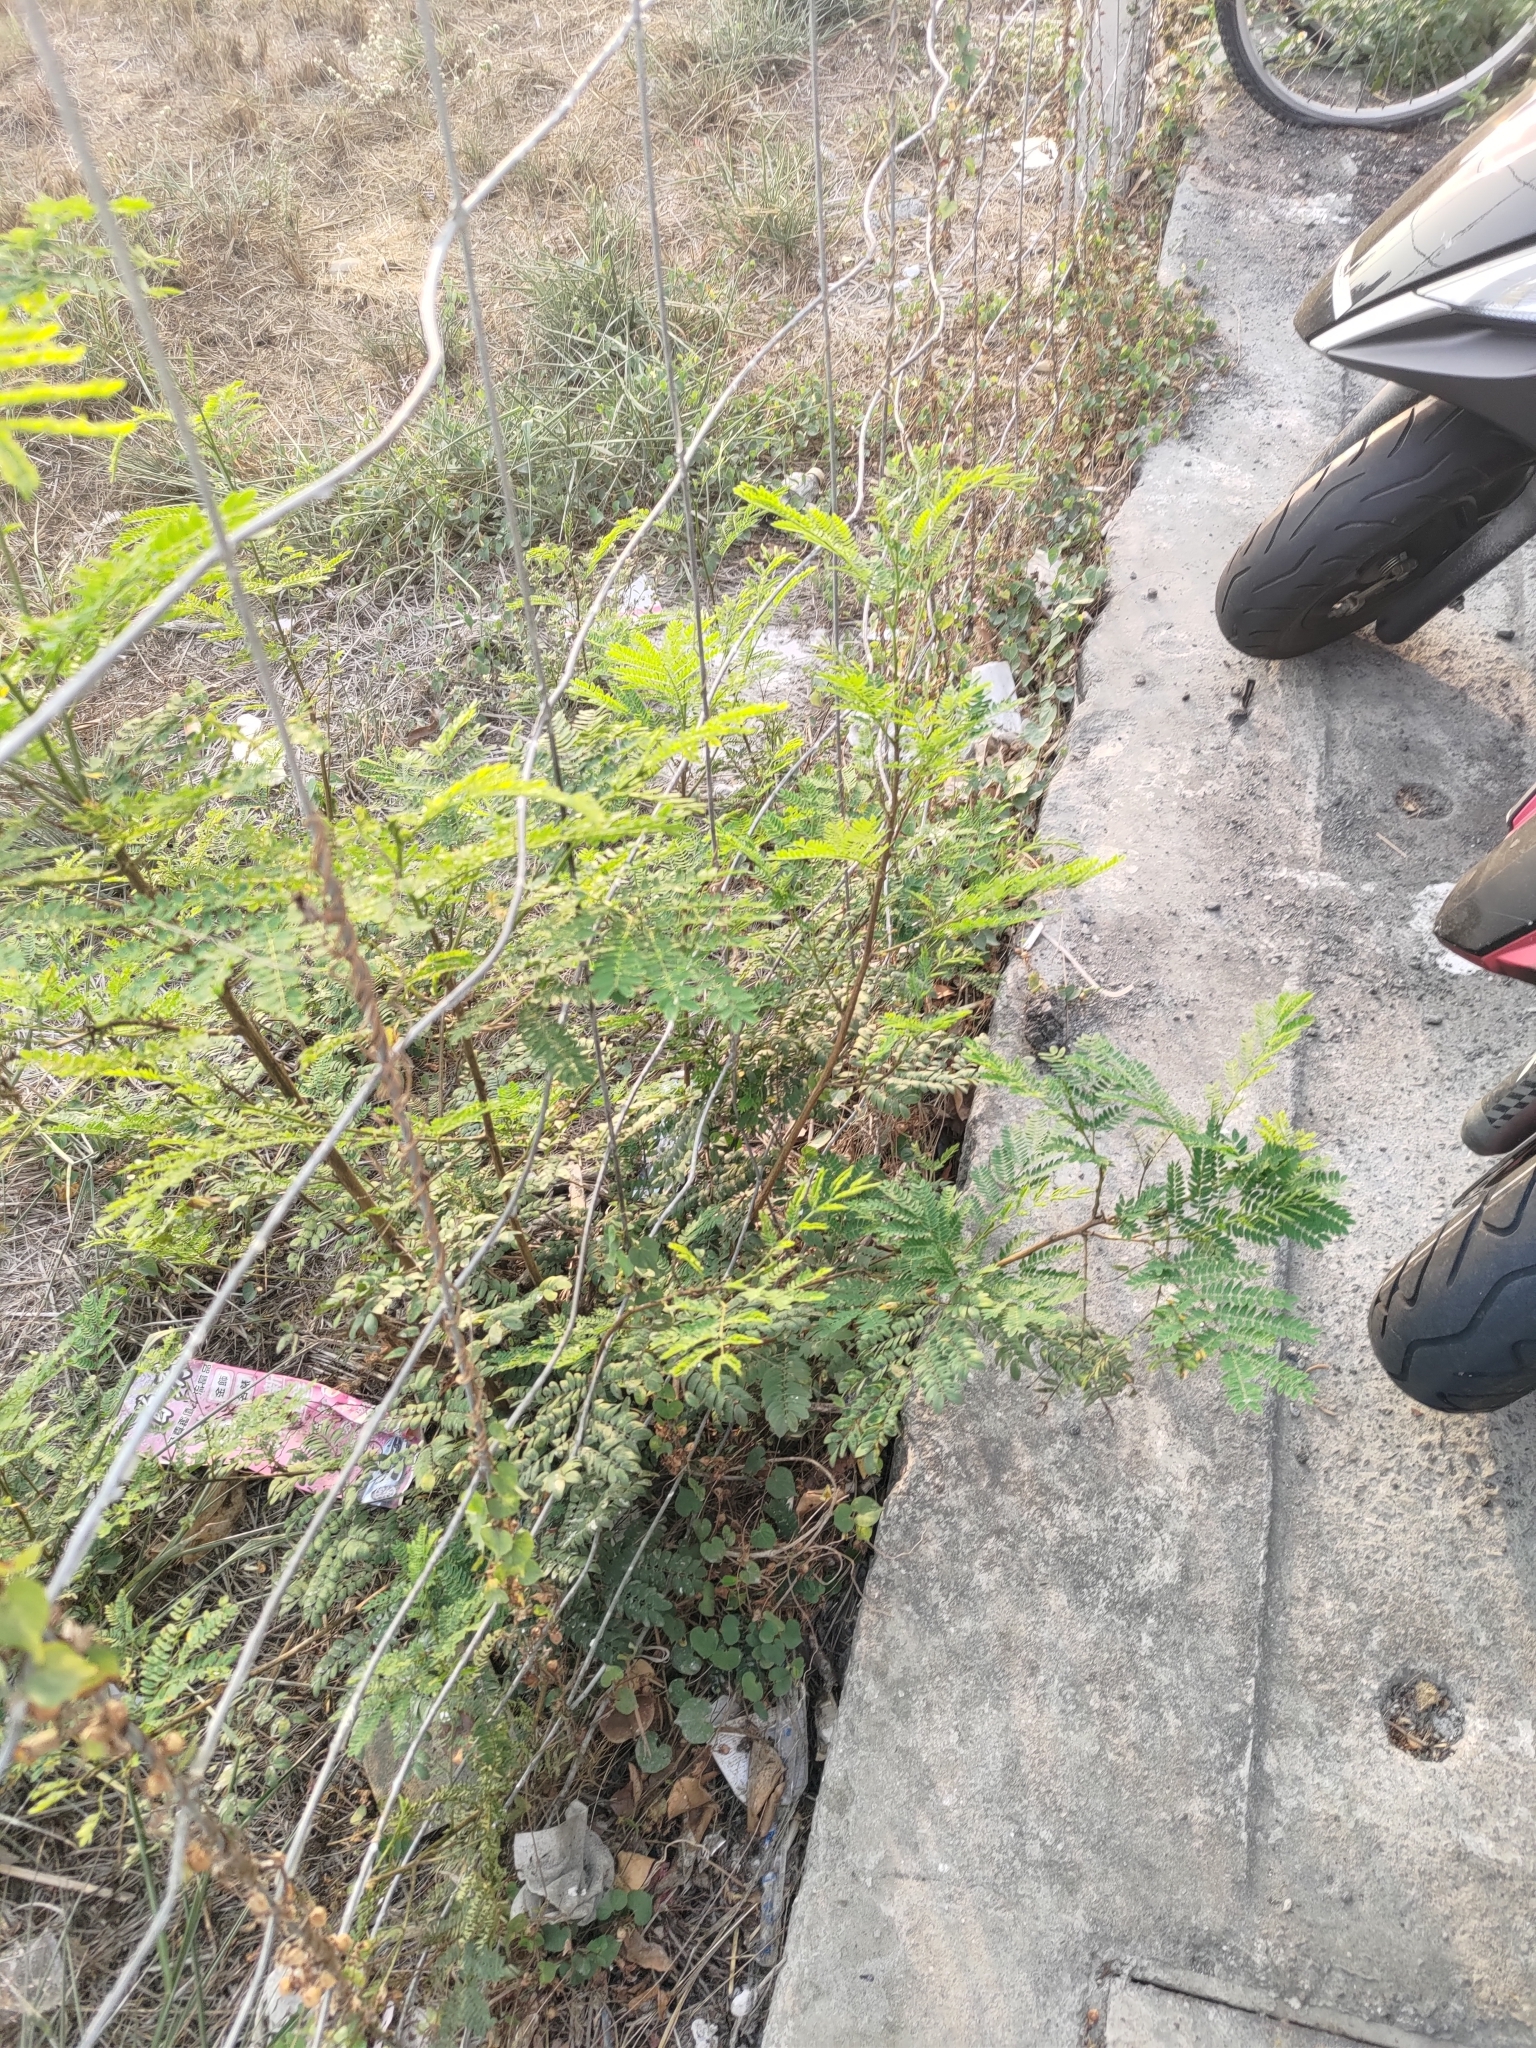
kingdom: Plantae
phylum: Tracheophyta
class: Magnoliopsida
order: Fabales
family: Fabaceae
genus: Leucaena
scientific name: Leucaena leucocephala
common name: White leadtree
